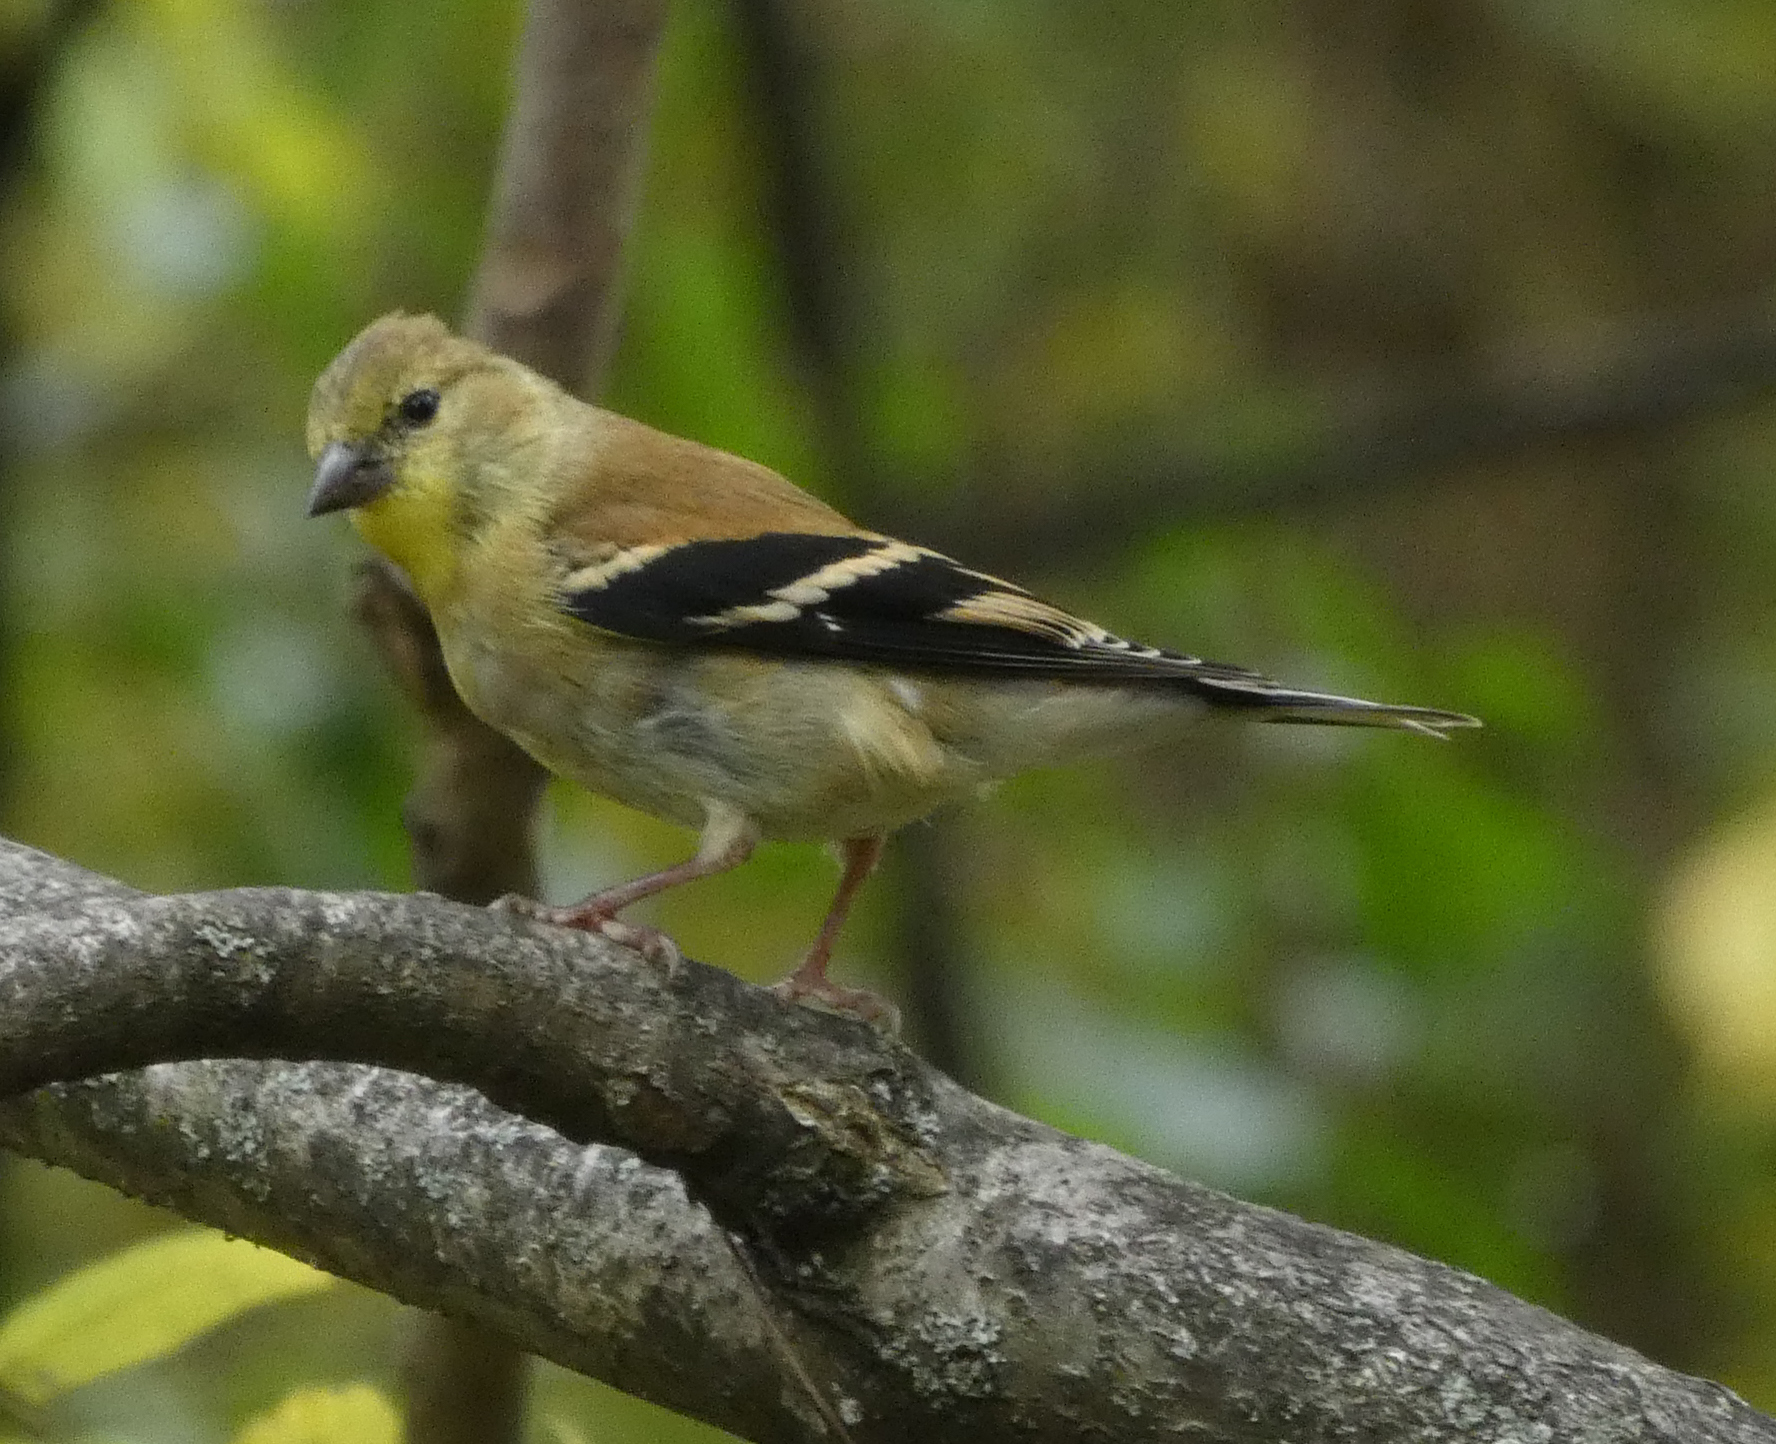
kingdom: Animalia
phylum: Chordata
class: Aves
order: Passeriformes
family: Fringillidae
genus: Spinus
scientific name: Spinus tristis
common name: American goldfinch
